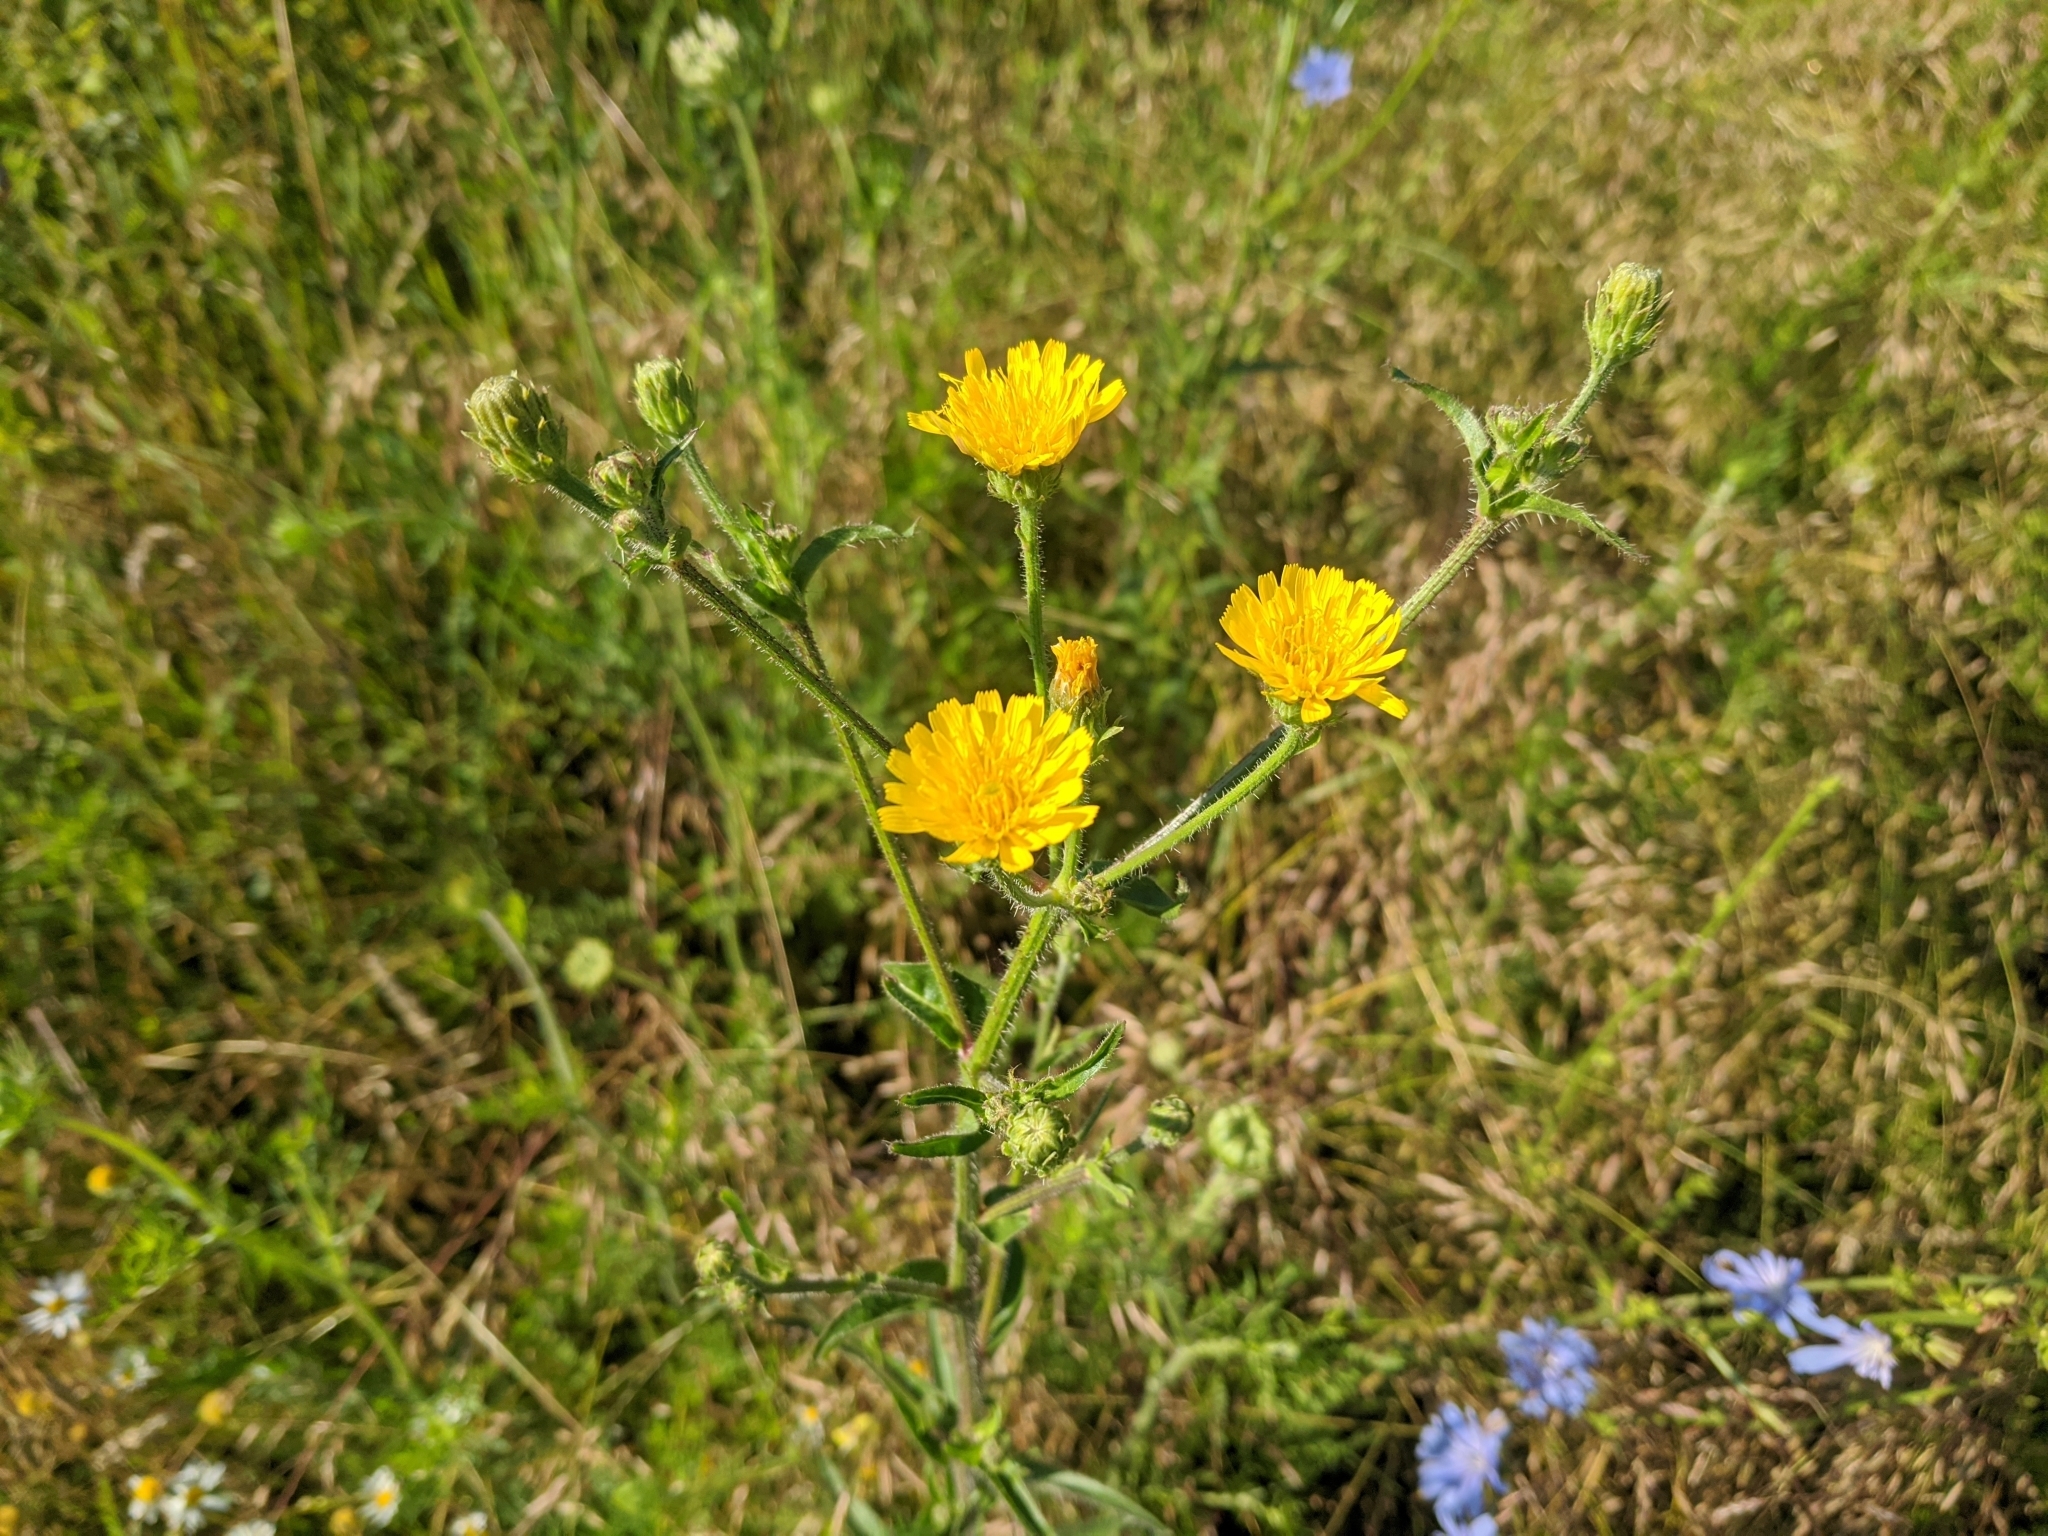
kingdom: Plantae
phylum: Tracheophyta
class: Magnoliopsida
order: Asterales
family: Asteraceae
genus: Picris
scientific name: Picris hieracioides
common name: Hawkweed oxtongue
